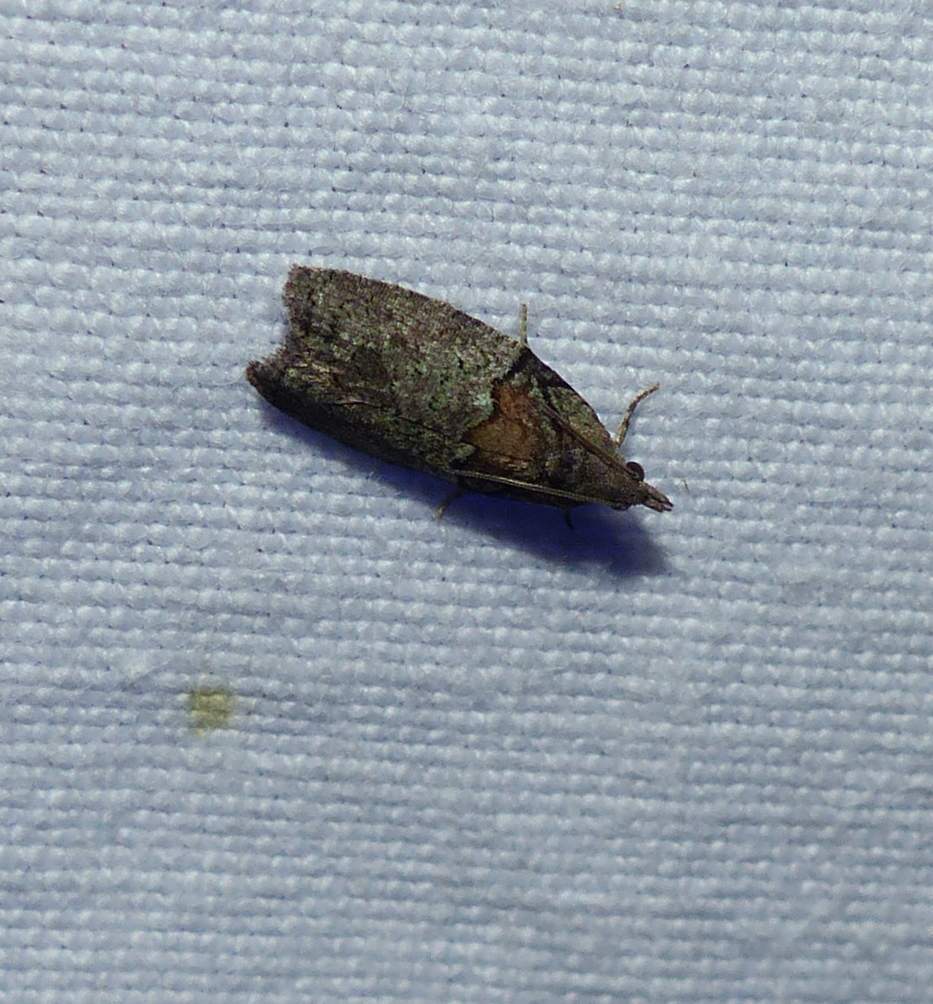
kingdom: Animalia
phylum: Arthropoda
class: Insecta
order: Lepidoptera
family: Tortricidae
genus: Epinotia
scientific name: Epinotia medioviridana
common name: Raspberry leaf-roller moth
